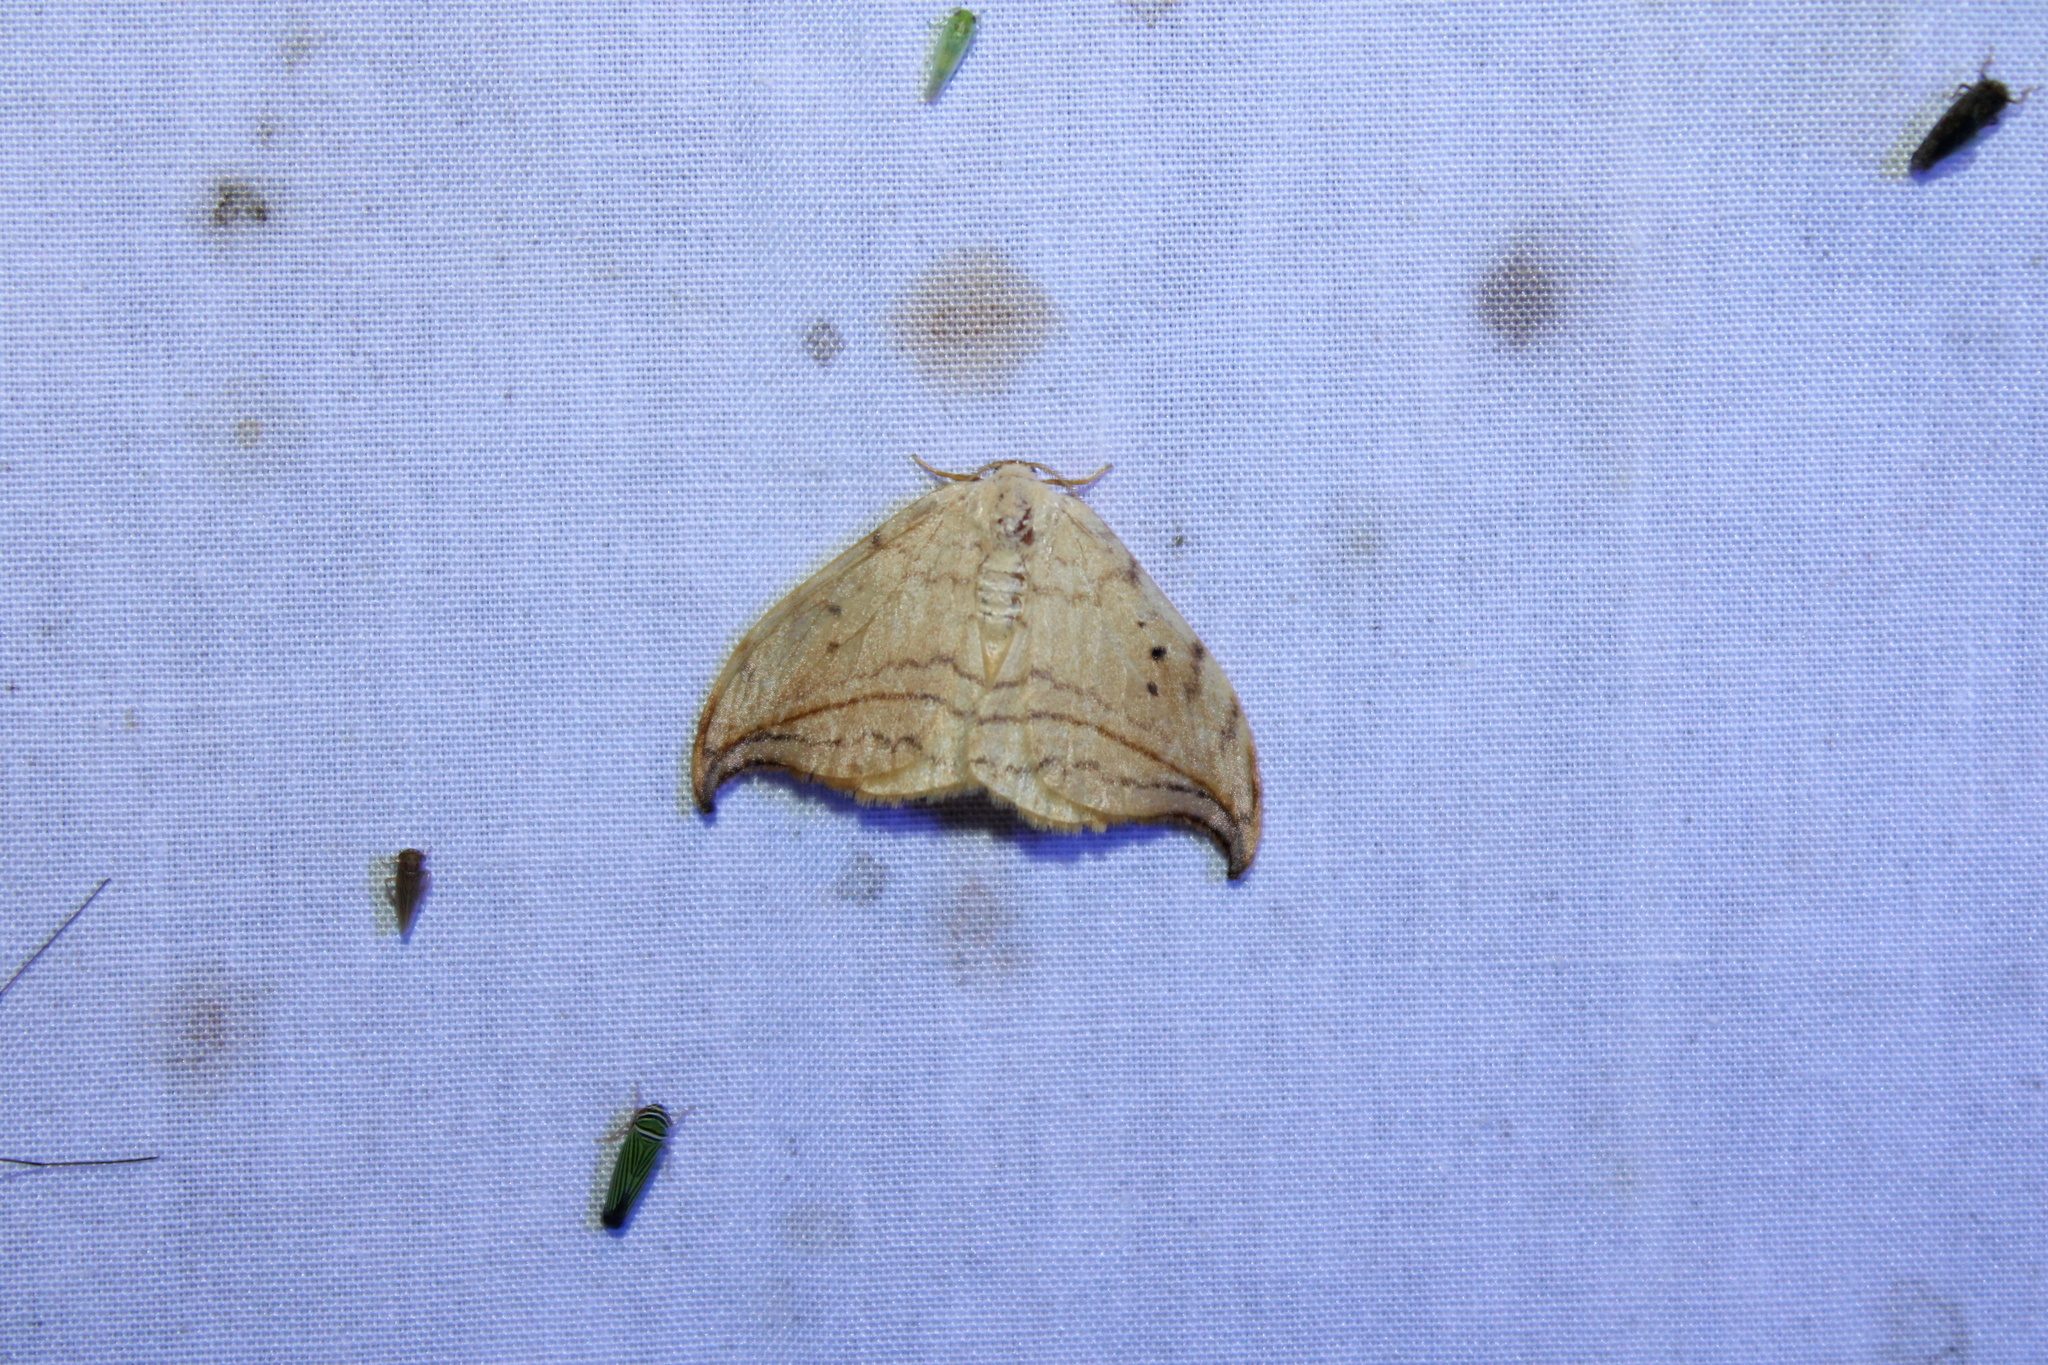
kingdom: Animalia
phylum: Arthropoda
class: Insecta
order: Lepidoptera
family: Drepanidae
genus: Drepana
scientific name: Drepana arcuata
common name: Arched hooktip moth
